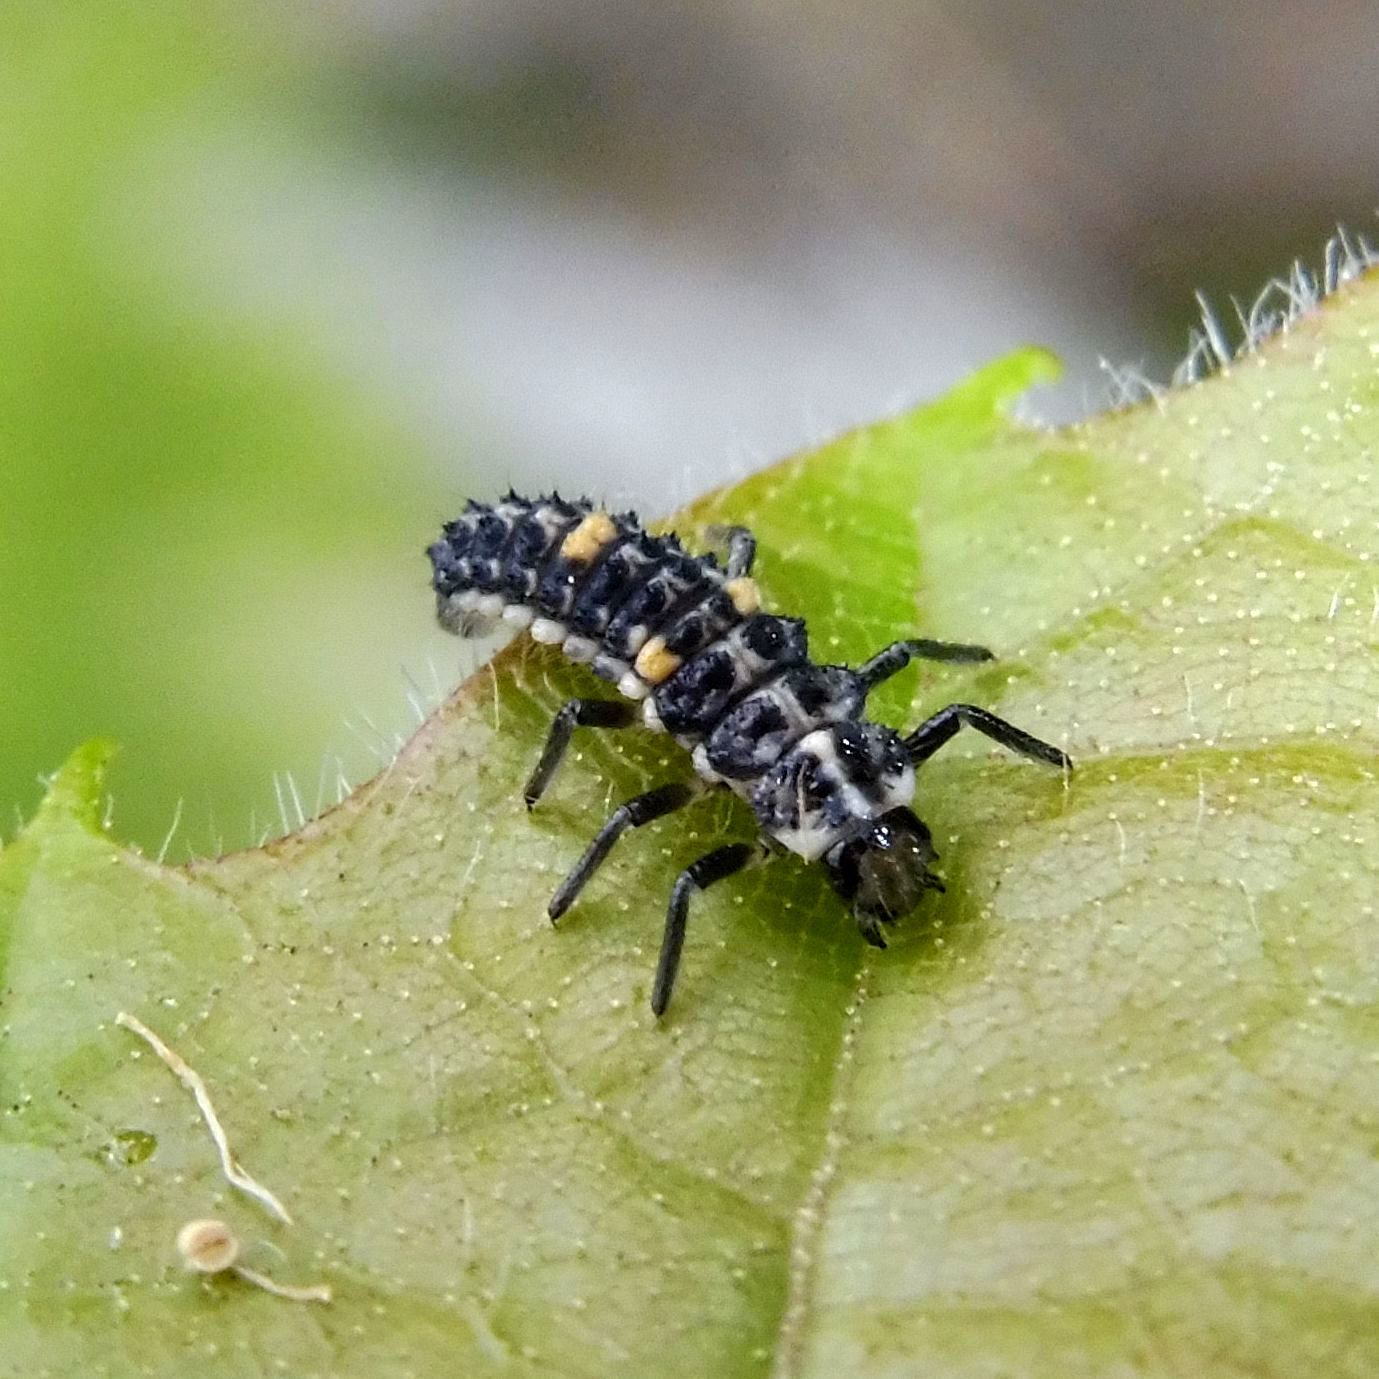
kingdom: Animalia
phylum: Arthropoda
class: Insecta
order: Coleoptera
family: Coccinellidae
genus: Adalia
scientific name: Adalia decempunctata
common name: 10-spot ladybird
